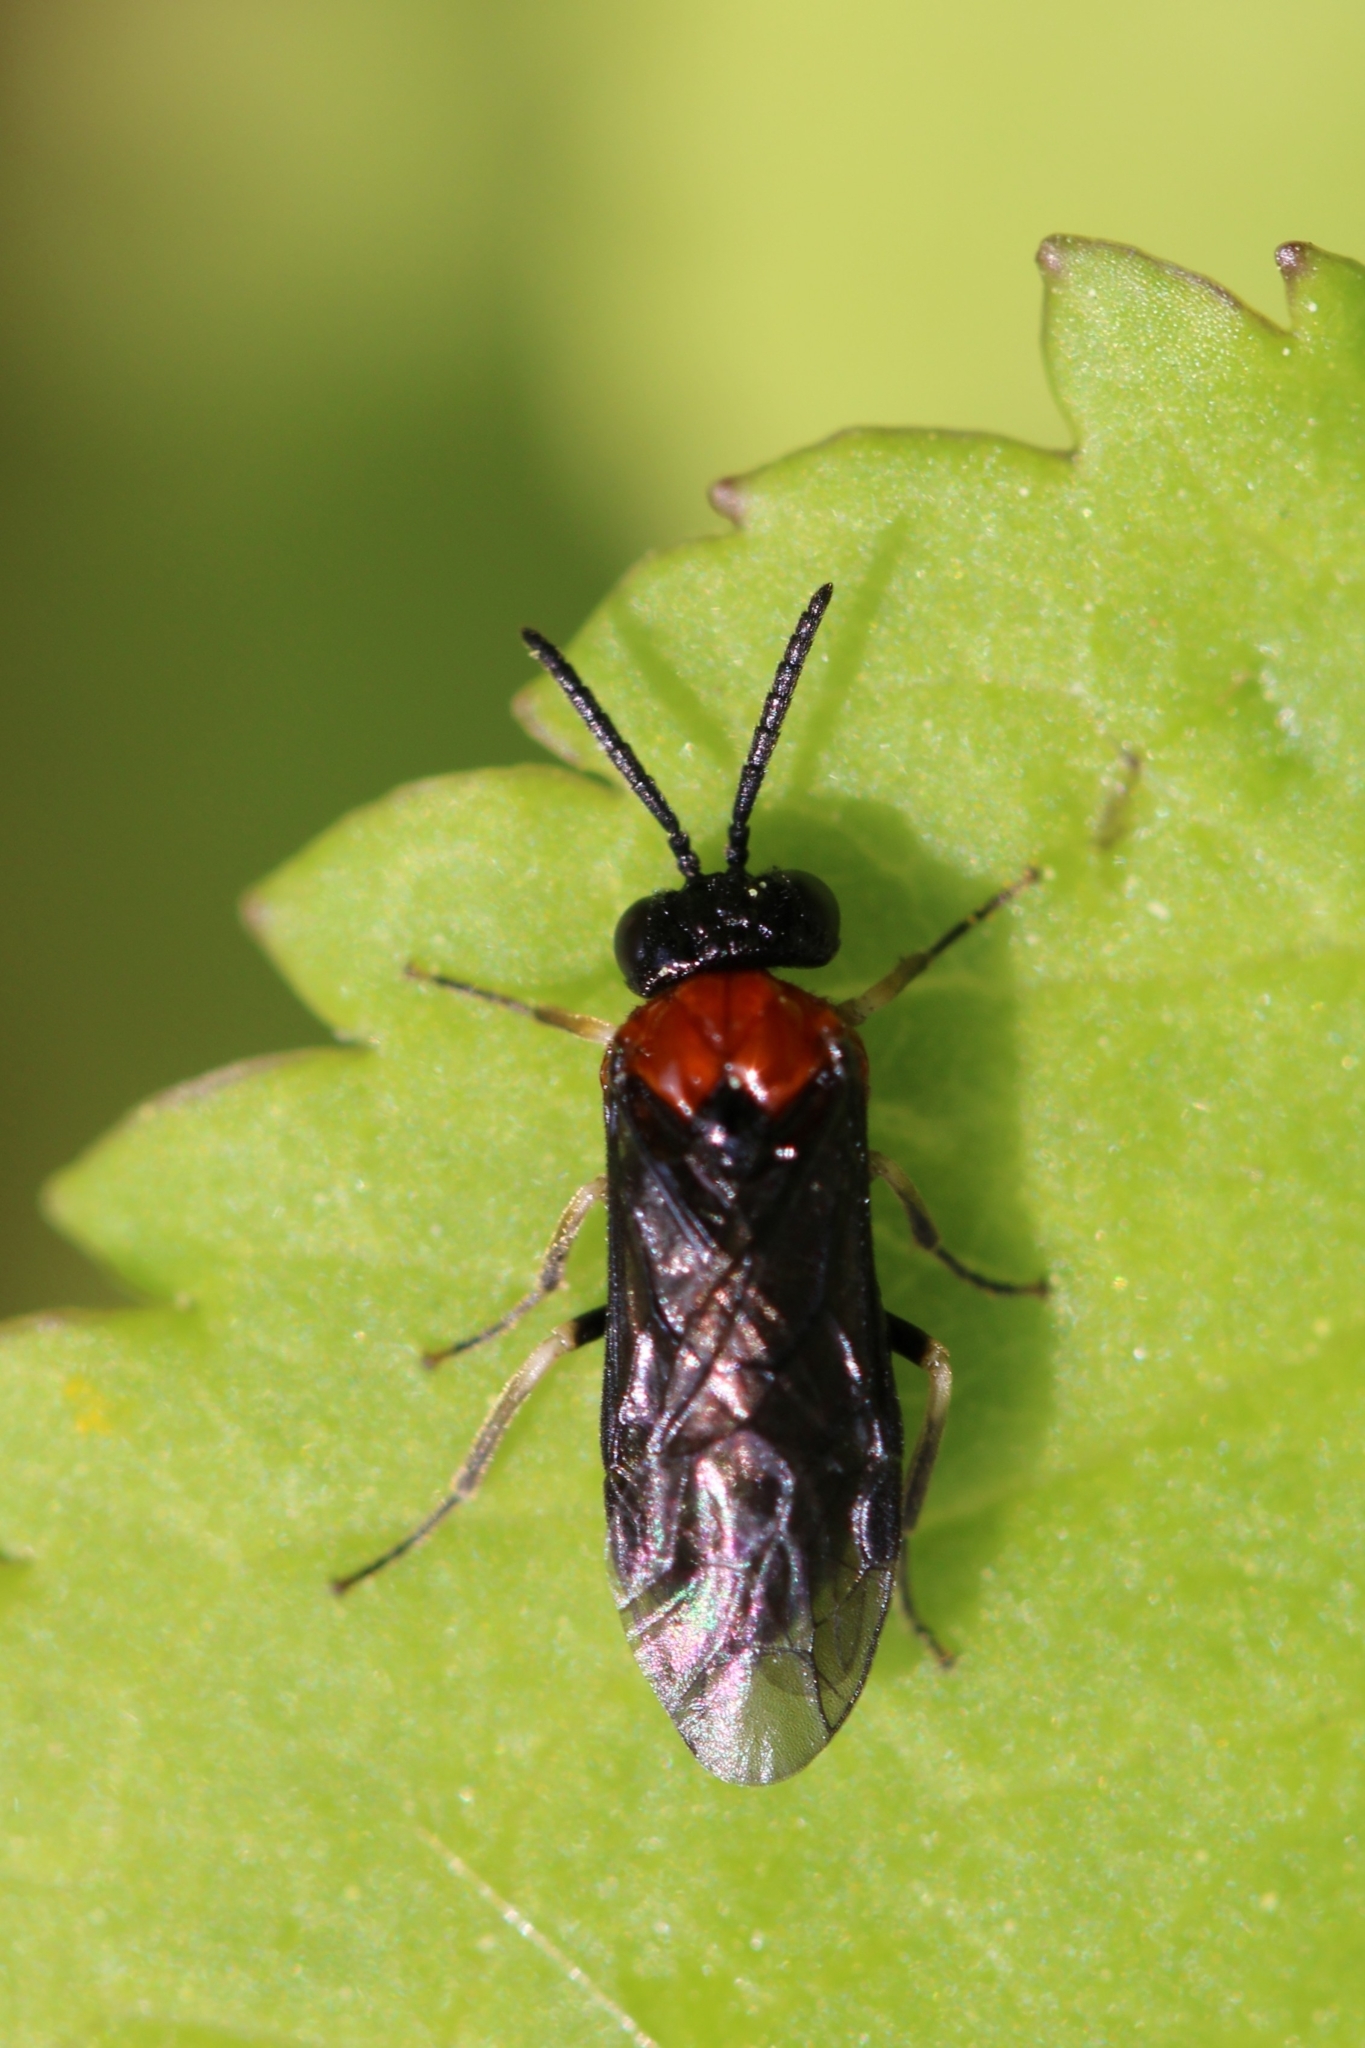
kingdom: Animalia
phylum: Arthropoda
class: Insecta
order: Hymenoptera
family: Tenthredinidae
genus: Eutomostethus
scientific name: Eutomostethus ephippium
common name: Tenthredid wasp
